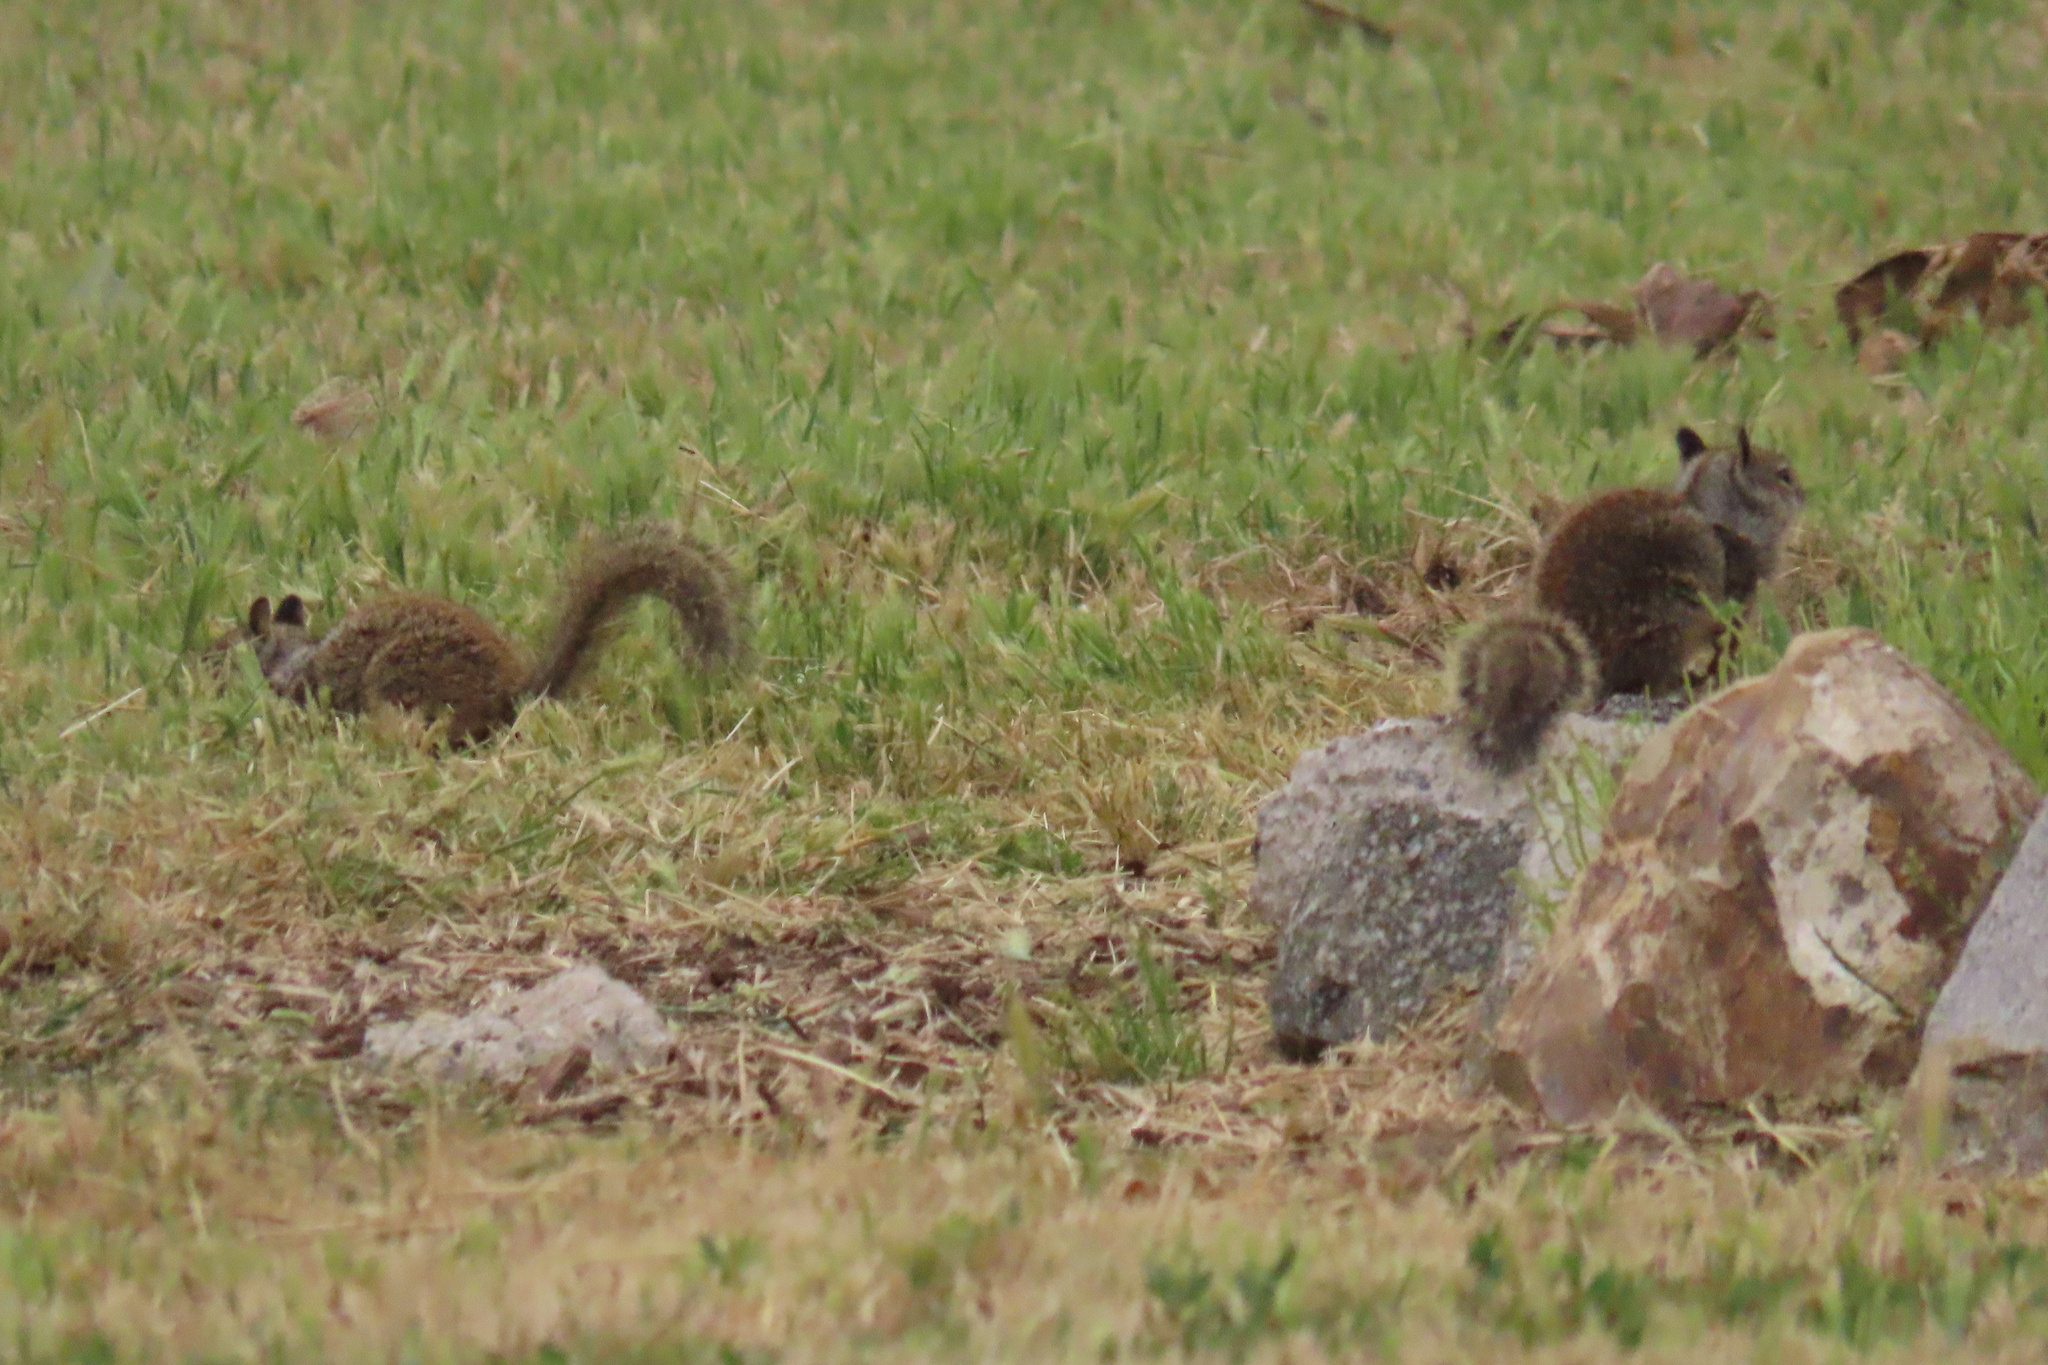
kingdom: Animalia
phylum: Chordata
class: Mammalia
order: Rodentia
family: Sciuridae
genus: Otospermophilus
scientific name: Otospermophilus beecheyi
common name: California ground squirrel
